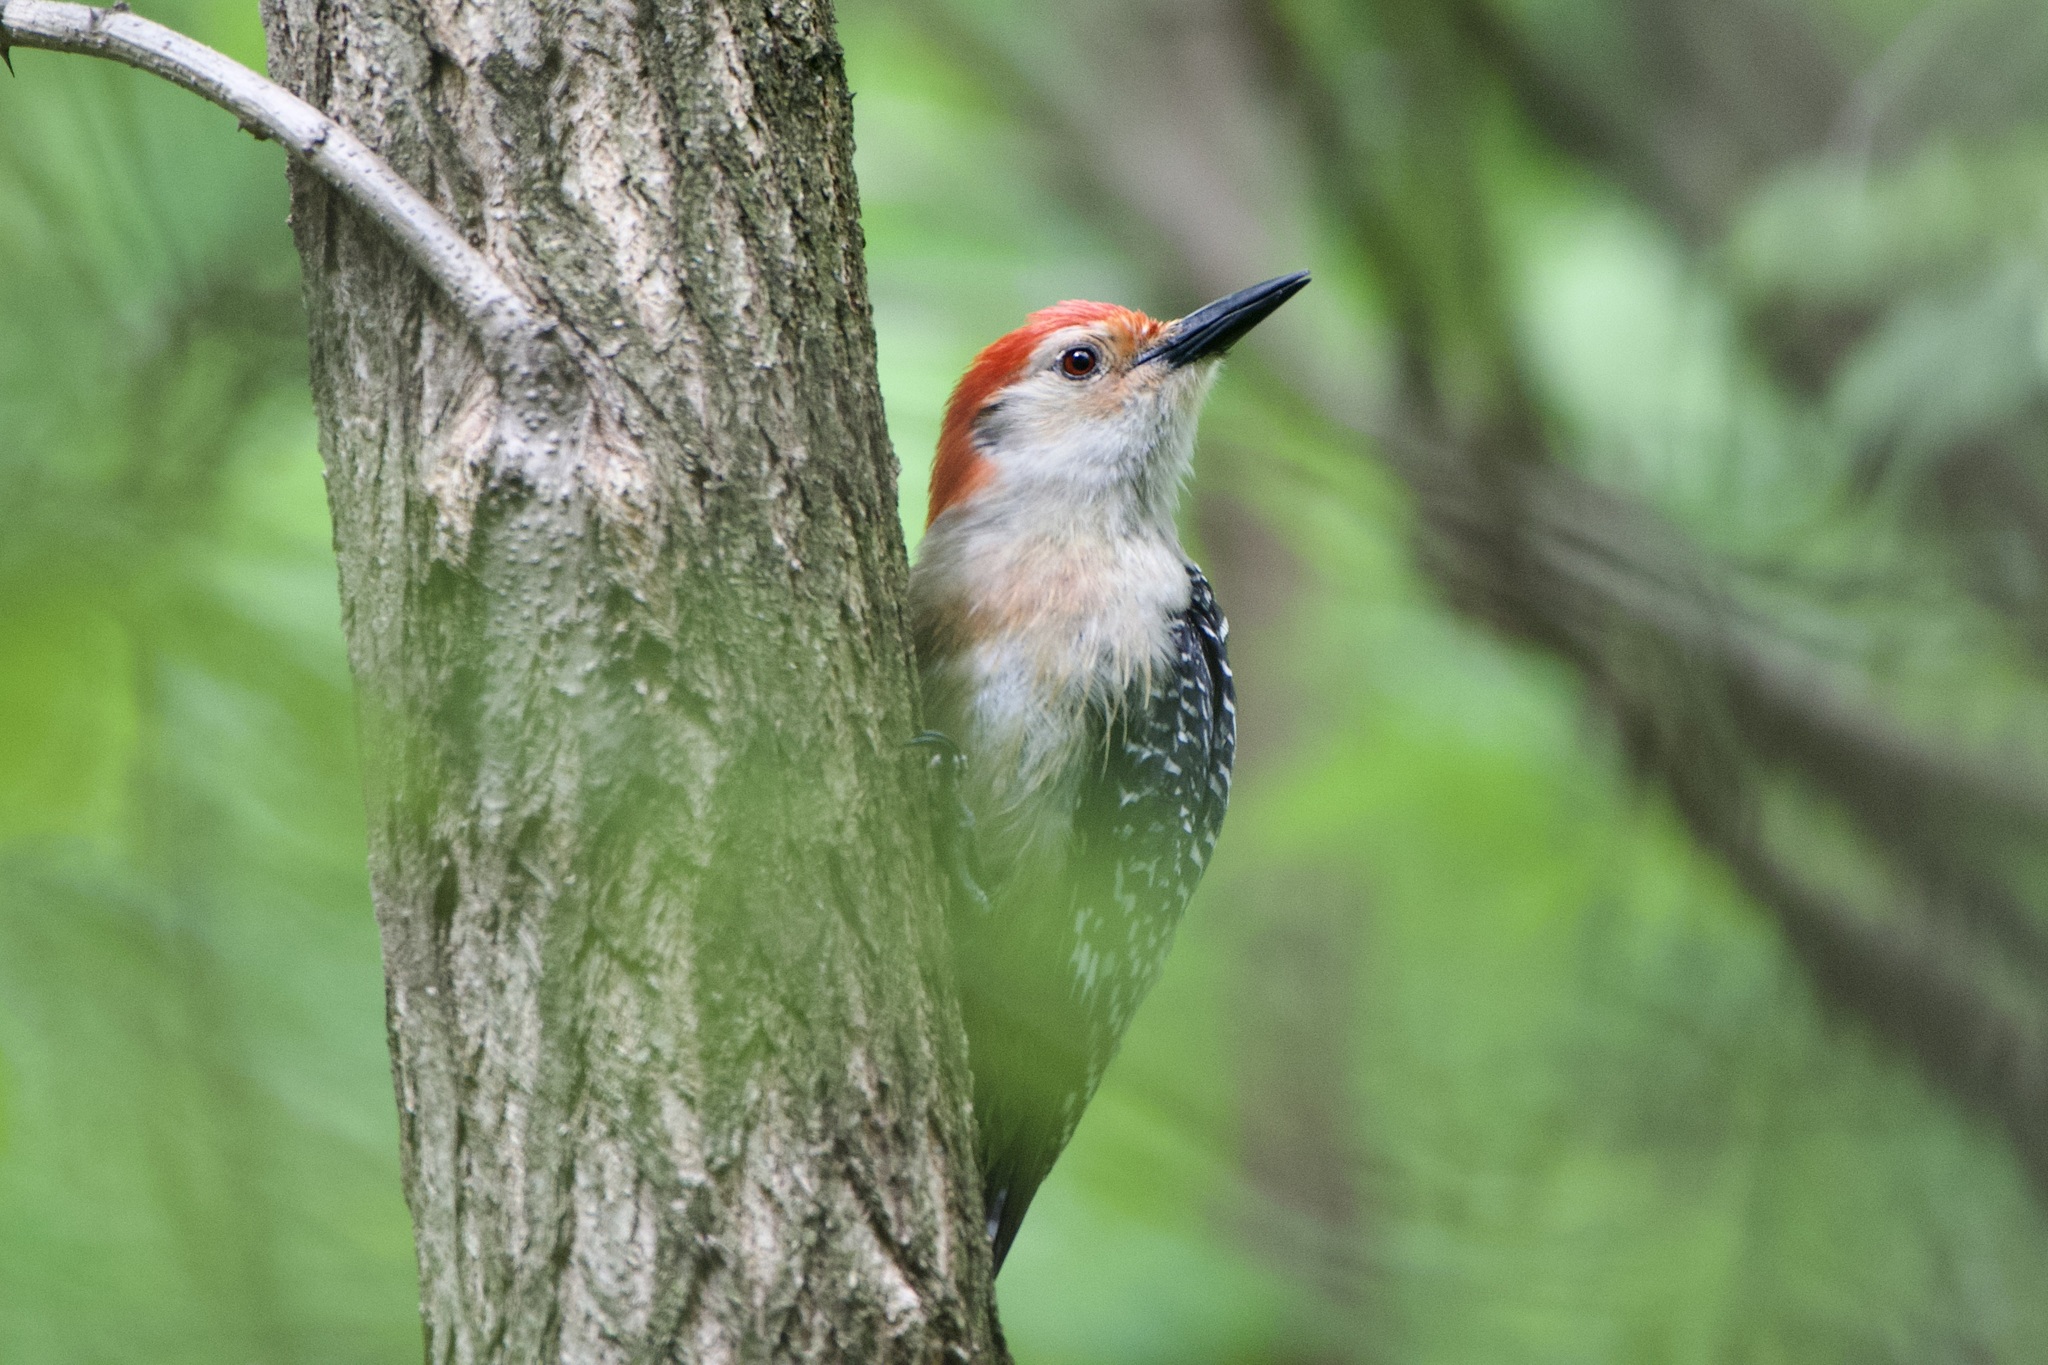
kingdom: Animalia
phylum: Chordata
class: Aves
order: Piciformes
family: Picidae
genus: Melanerpes
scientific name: Melanerpes carolinus
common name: Red-bellied woodpecker
